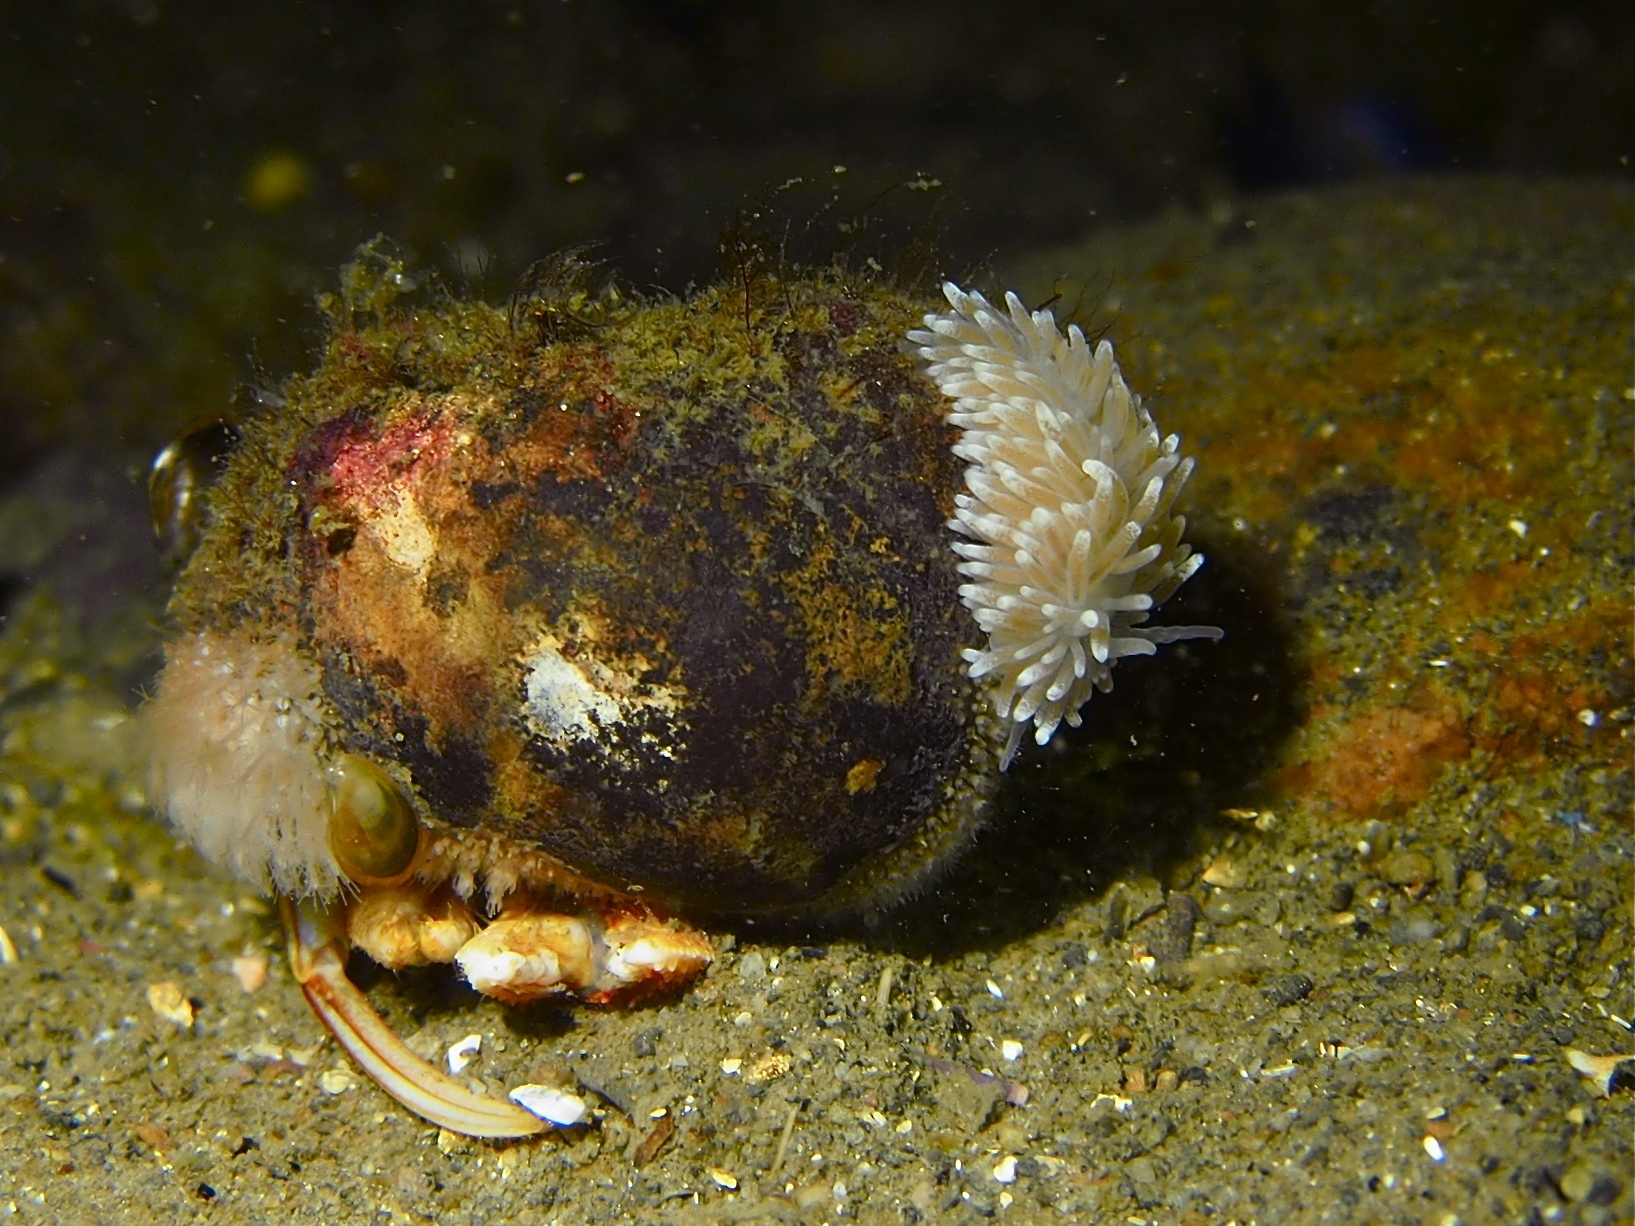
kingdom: Animalia
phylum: Mollusca
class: Gastropoda
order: Nudibranchia
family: Cuthonidae
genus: Cuthona
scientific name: Cuthona nana
